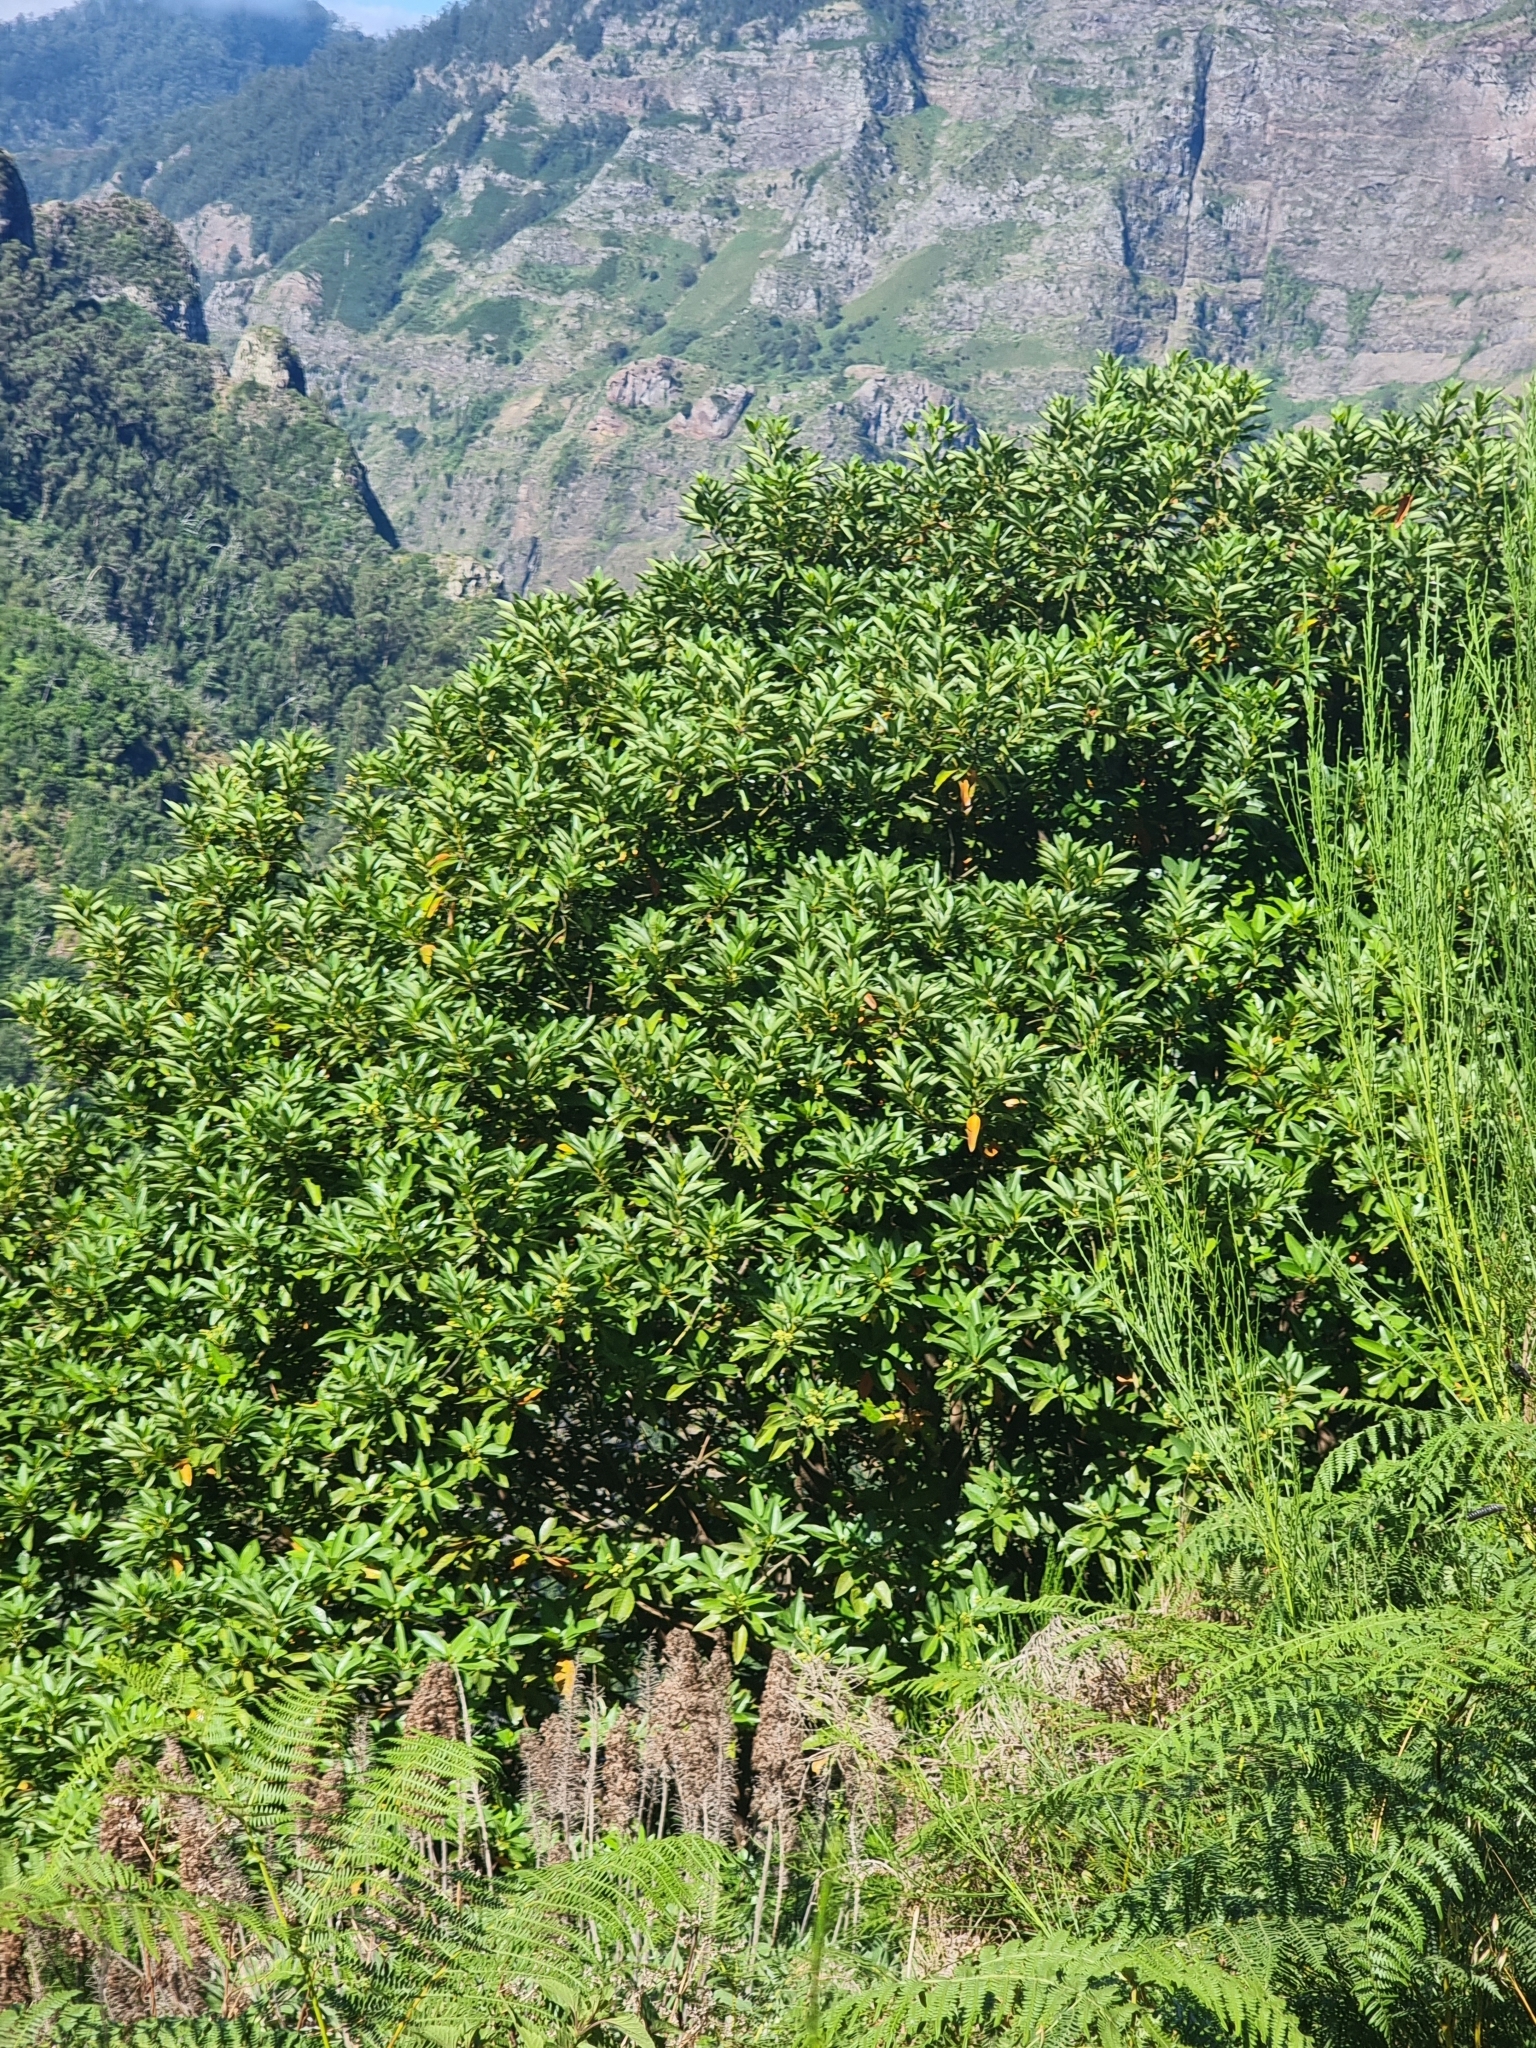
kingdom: Plantae
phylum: Tracheophyta
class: Magnoliopsida
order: Laurales
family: Lauraceae
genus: Persea
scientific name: Persea indica
